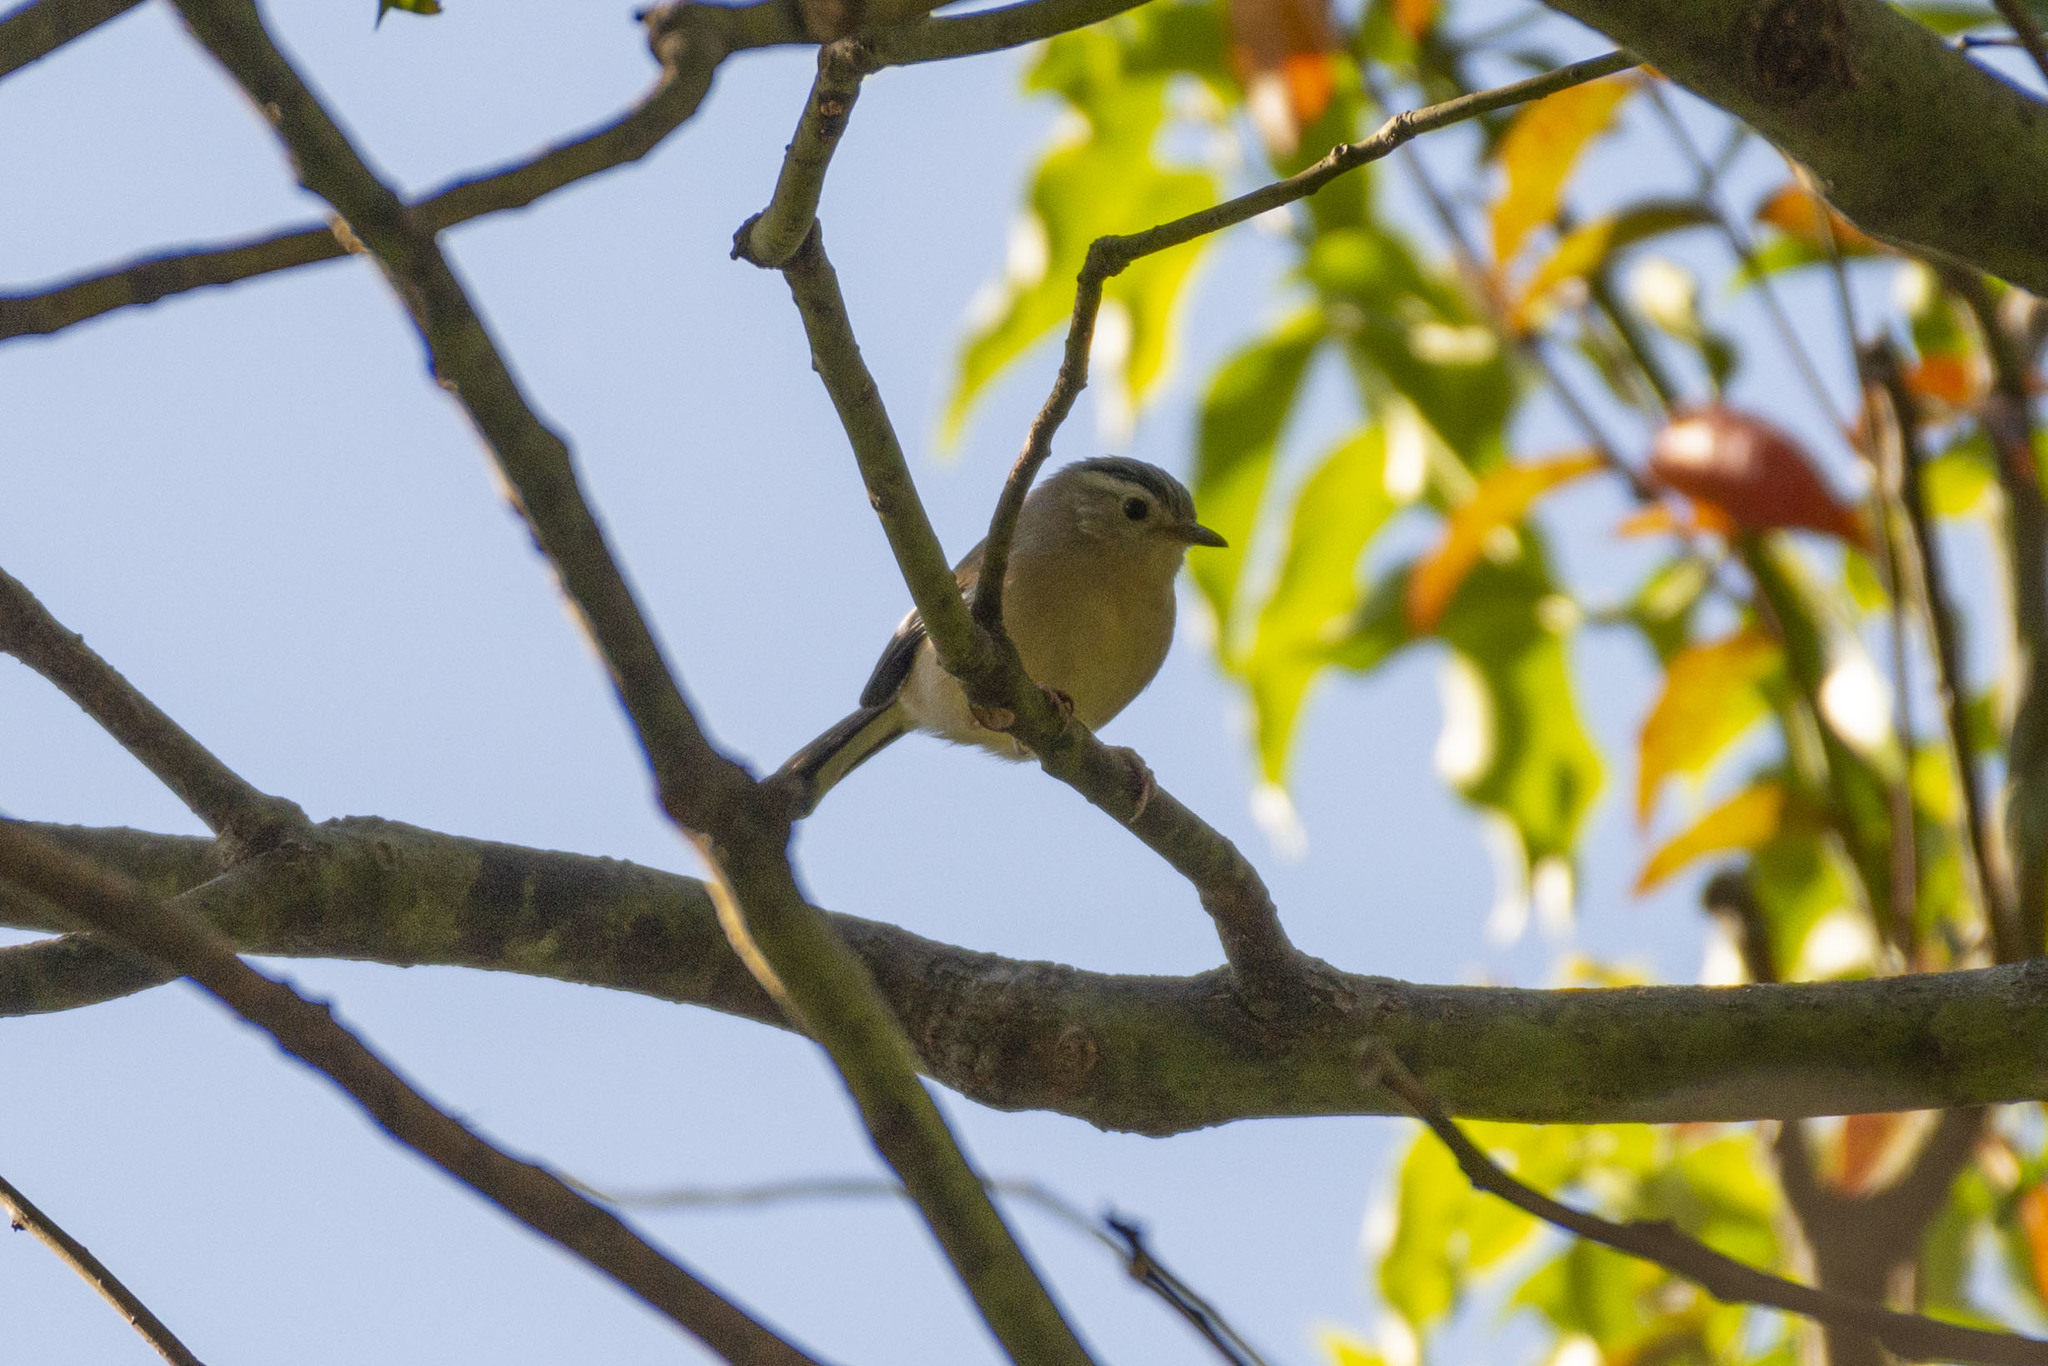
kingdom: Animalia
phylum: Chordata
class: Aves
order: Passeriformes
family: Leiothrichidae
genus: Minla
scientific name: Minla cyanouroptera
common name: Blue-winged minla
